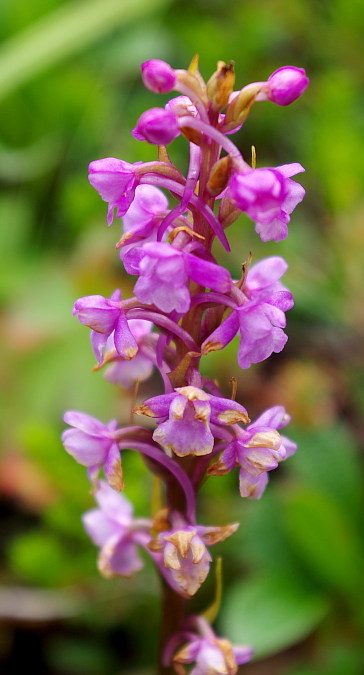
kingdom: Plantae
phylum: Tracheophyta
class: Liliopsida
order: Asparagales
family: Orchidaceae
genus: Gymnadenia
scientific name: Gymnadenia conopsea
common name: Fragrant orchid
